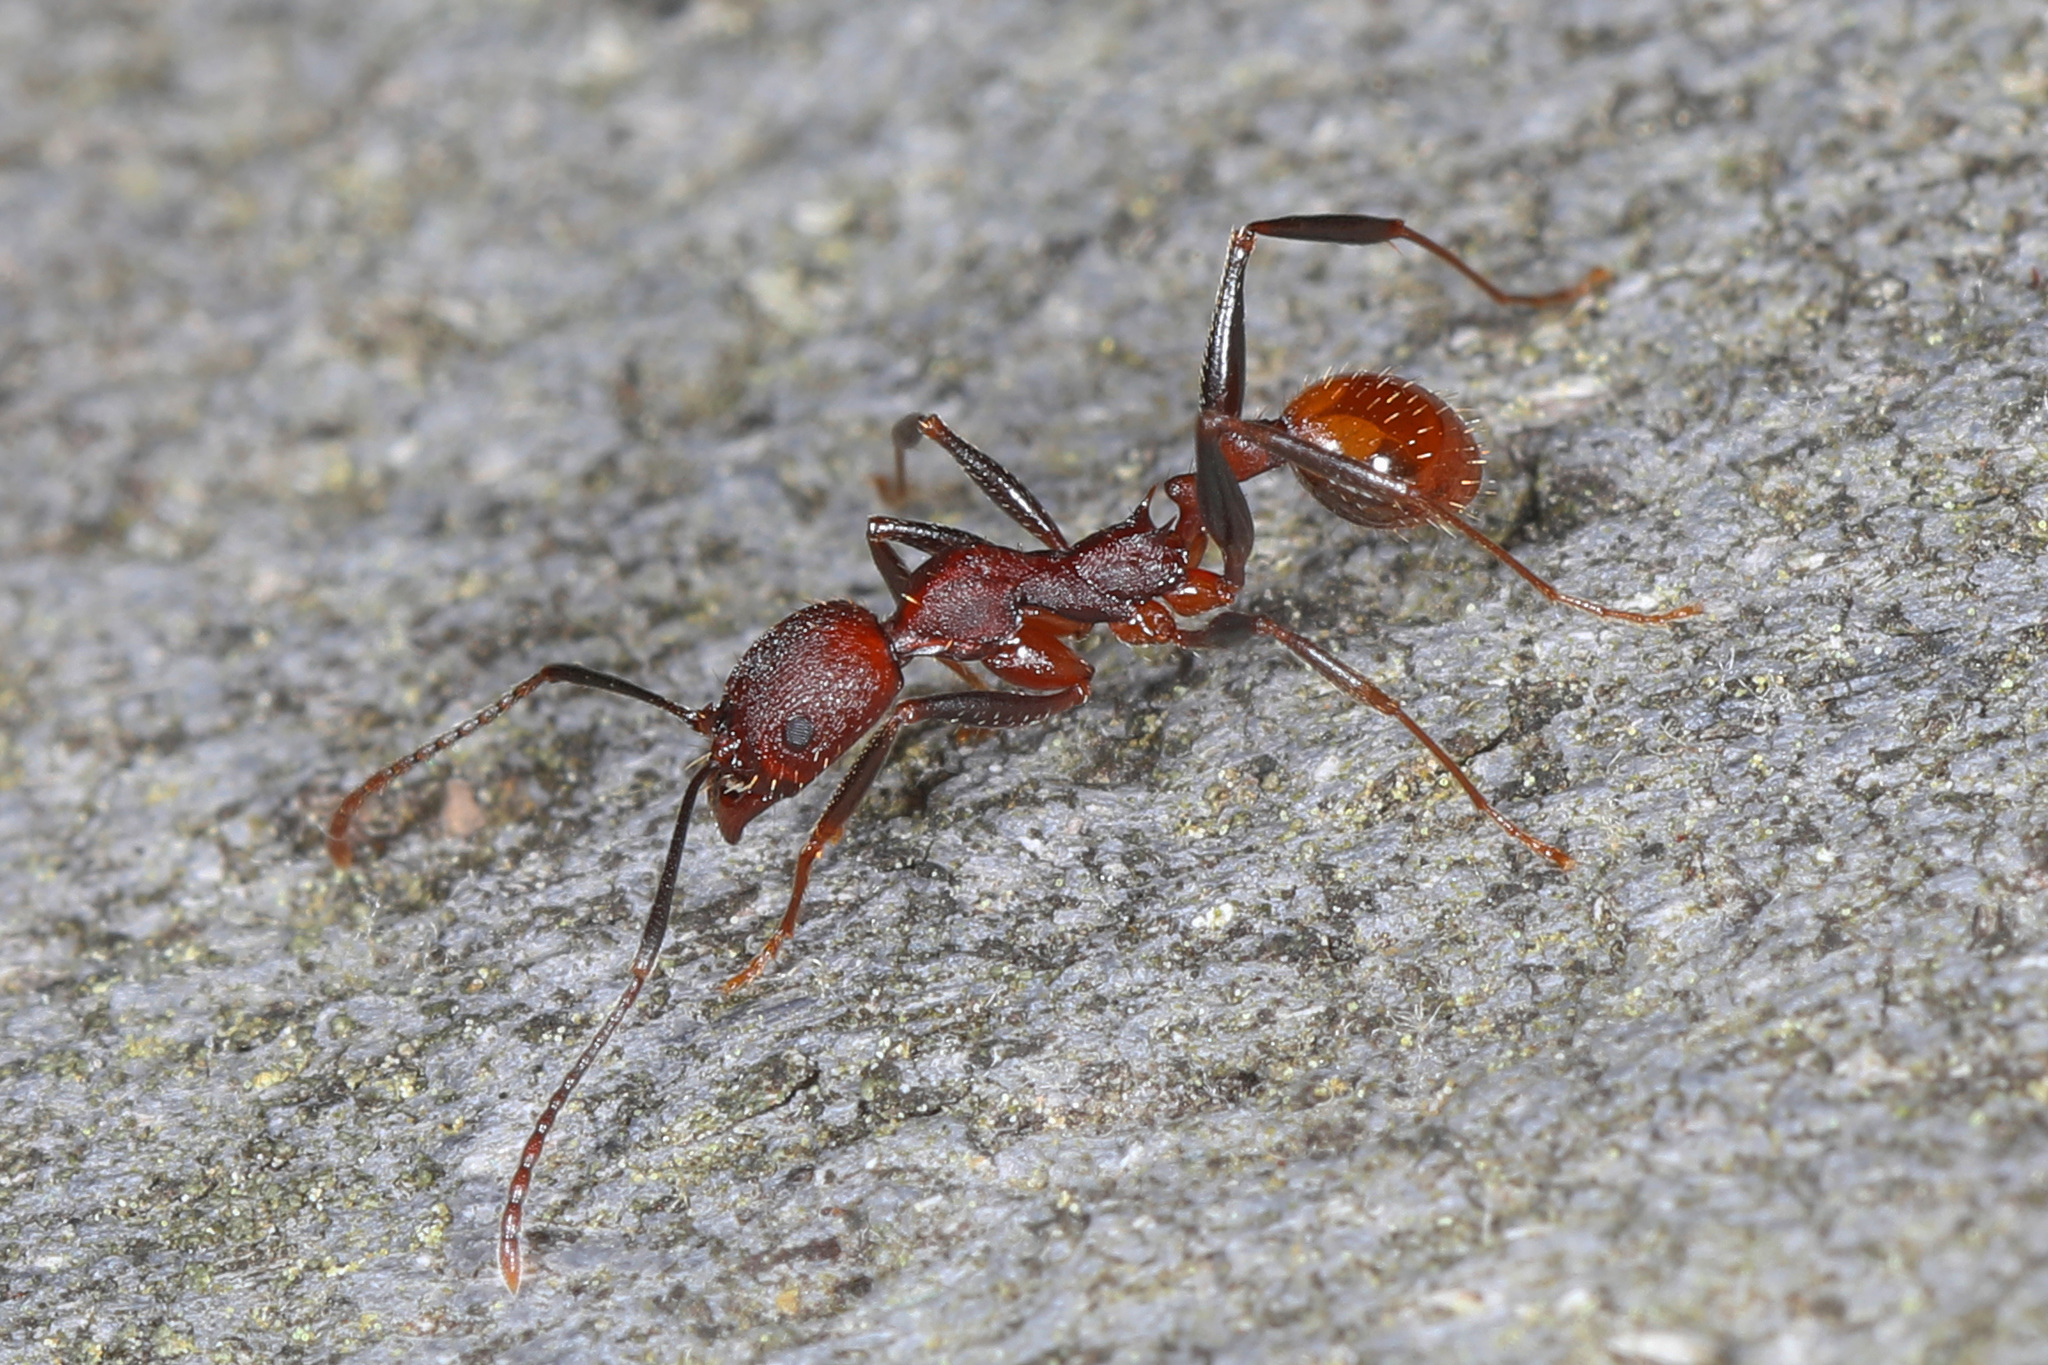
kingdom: Animalia
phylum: Arthropoda
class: Insecta
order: Hymenoptera
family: Formicidae
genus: Aphaenogaster
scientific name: Aphaenogaster lamellidens
